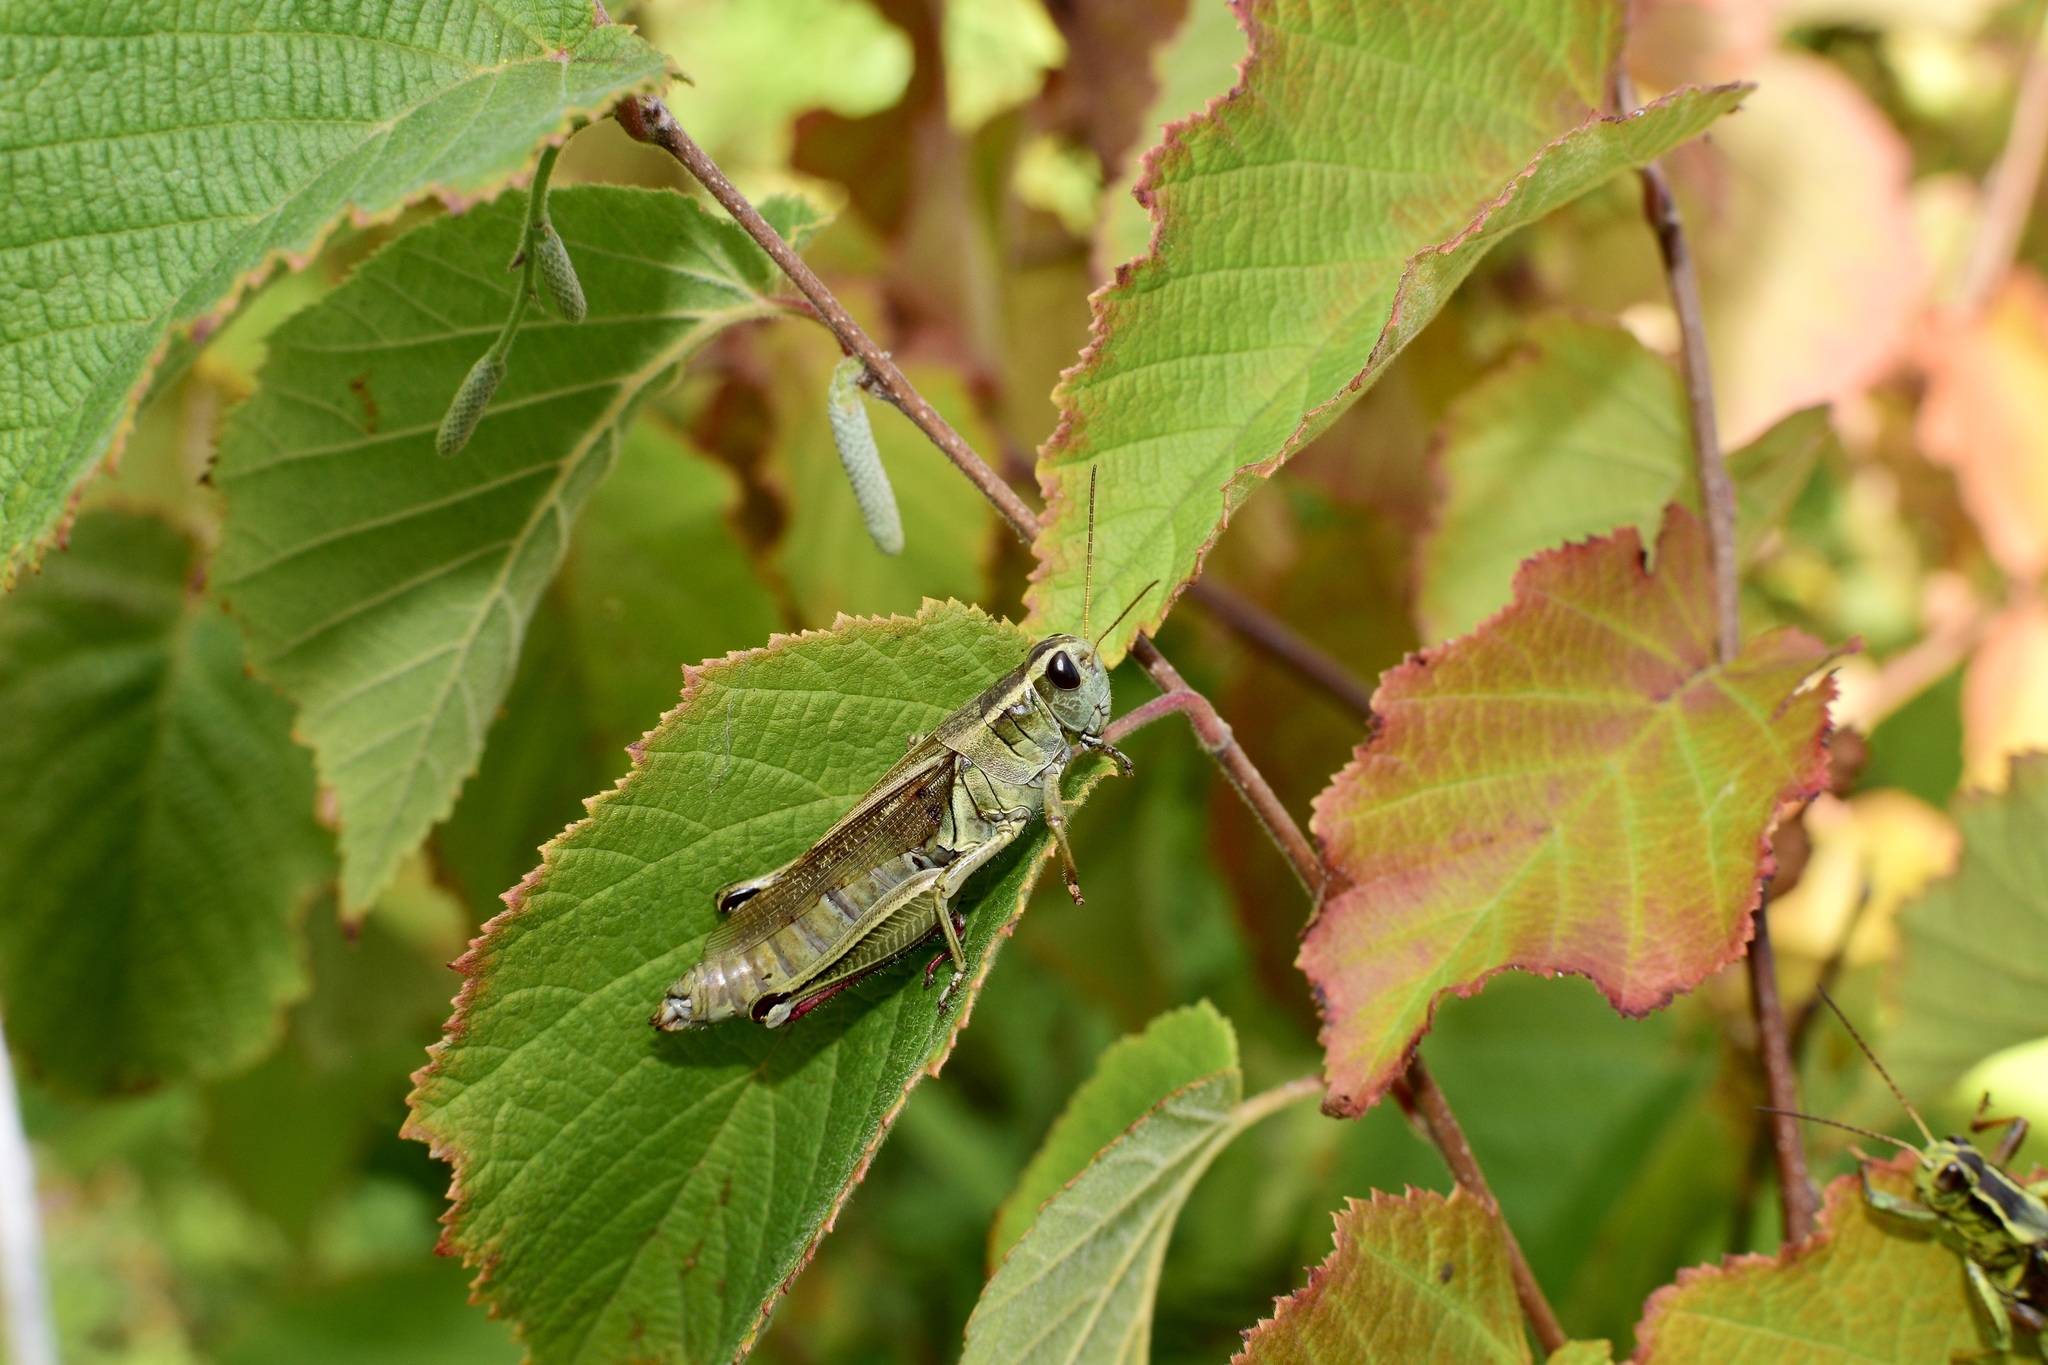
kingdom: Animalia
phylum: Arthropoda
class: Insecta
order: Orthoptera
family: Acrididae
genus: Melanoplus
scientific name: Melanoplus bivittatus
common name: Two-striped grasshopper
